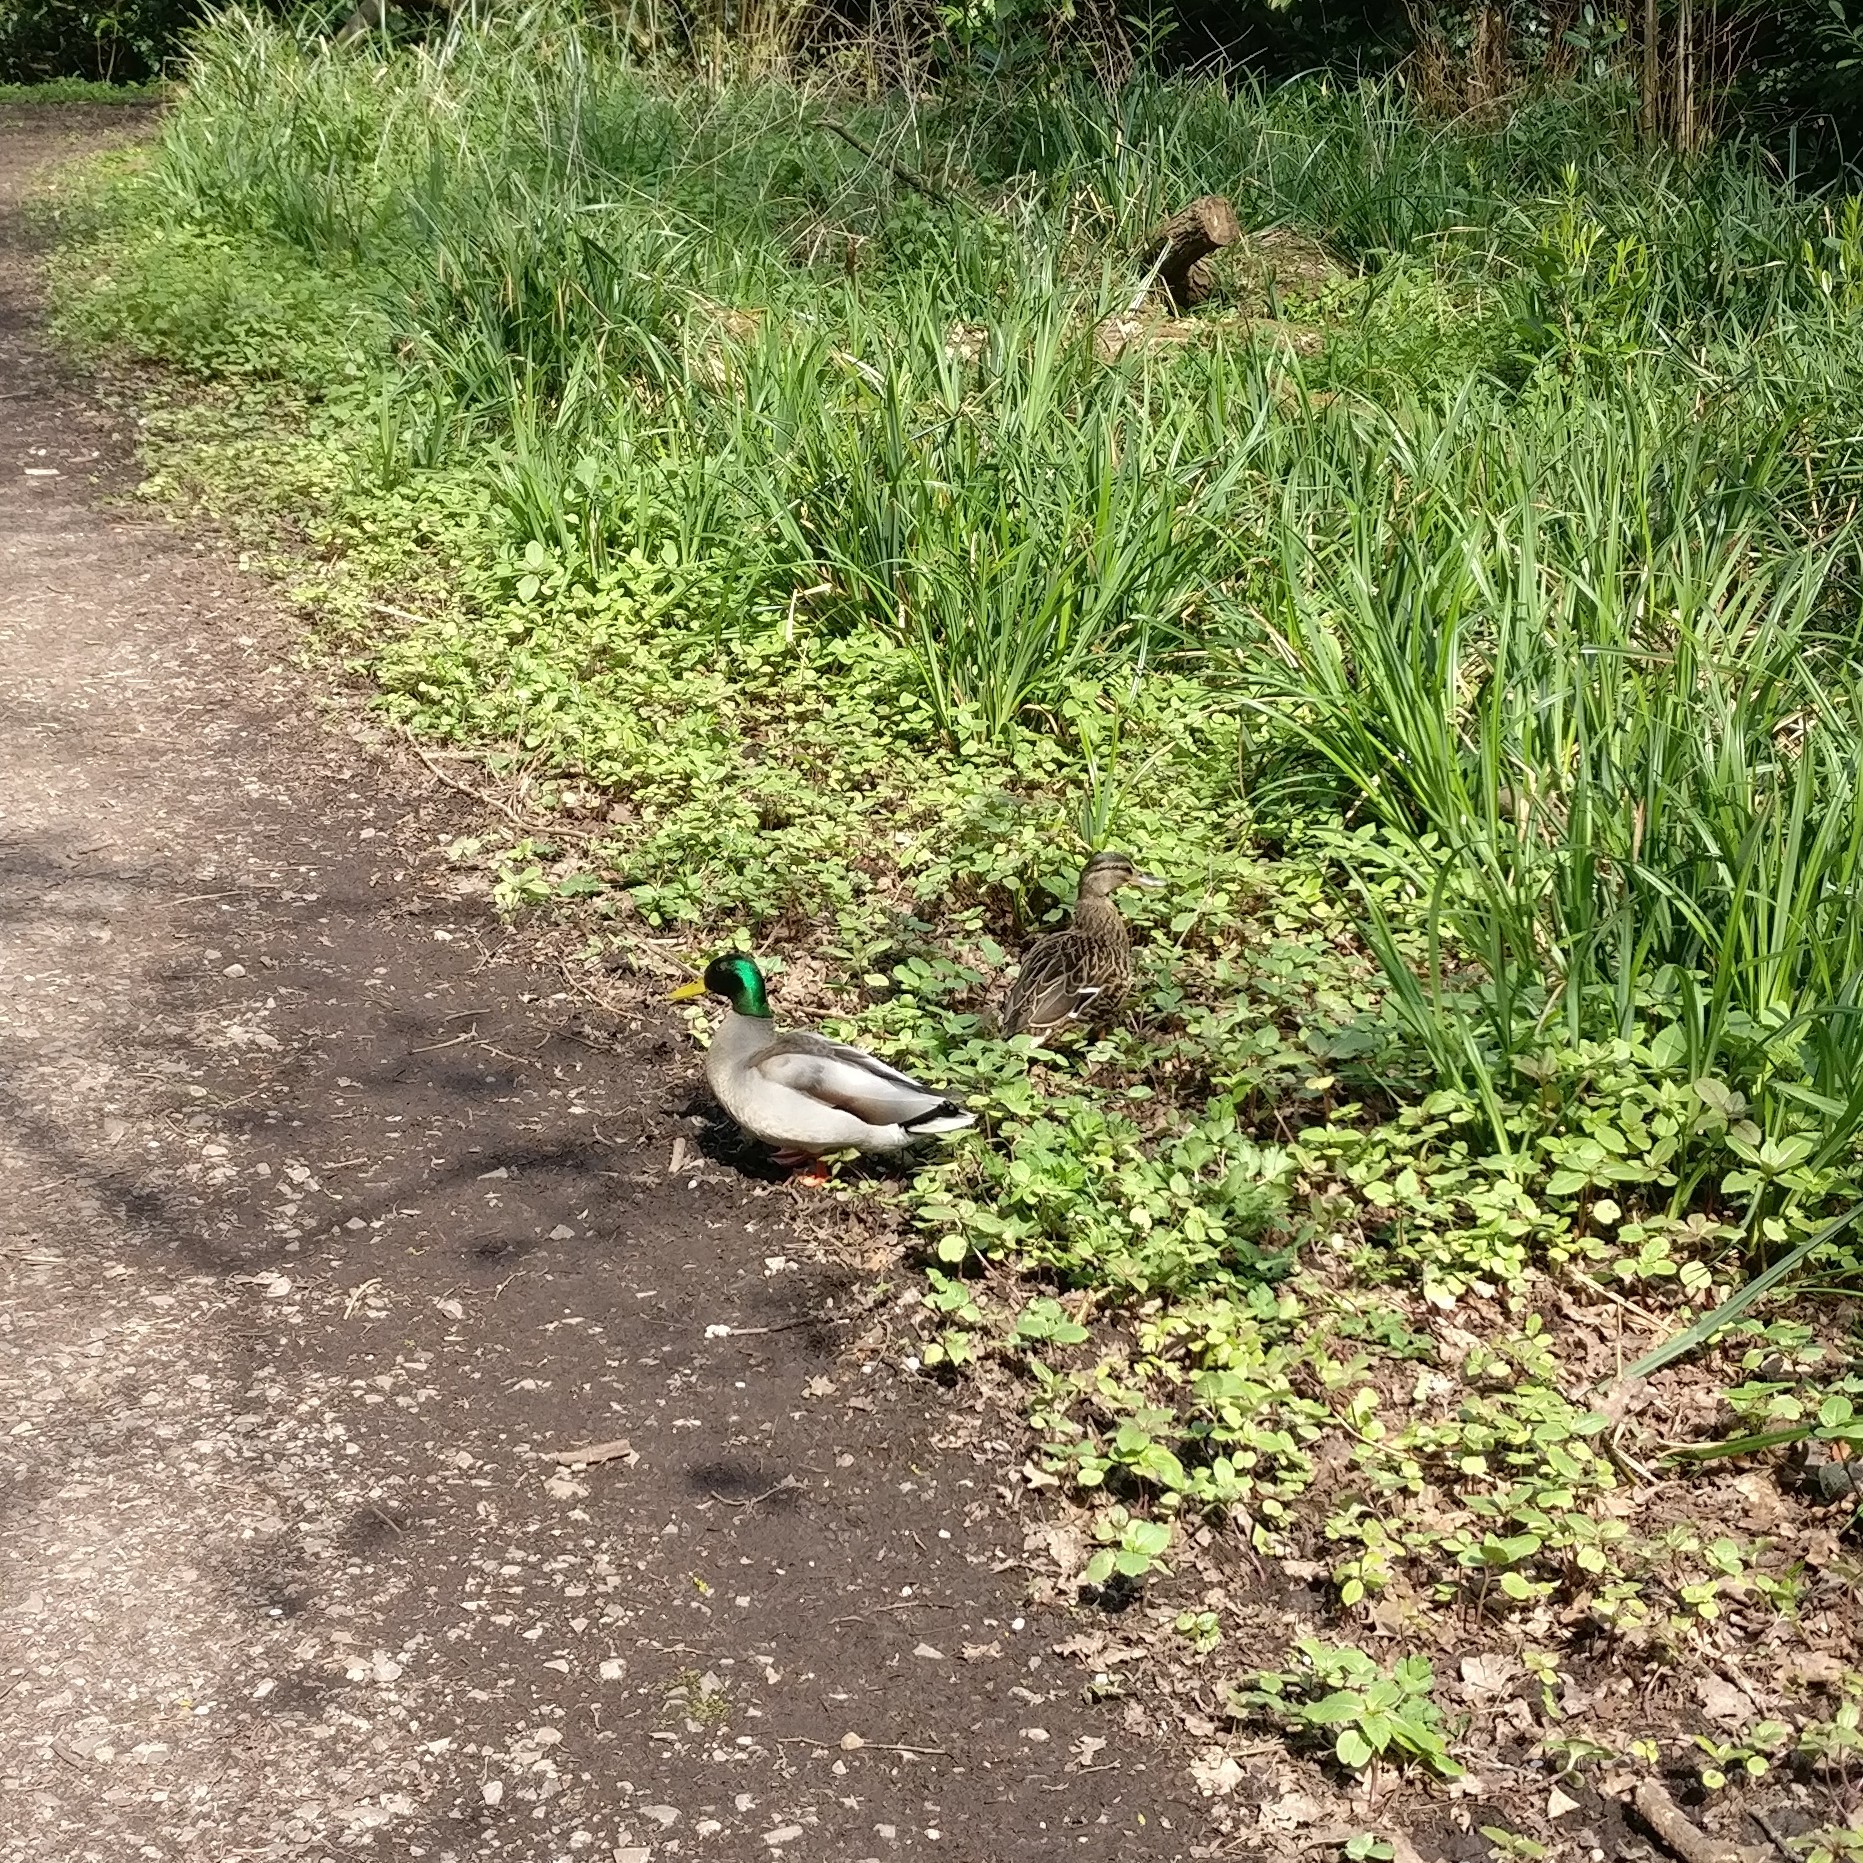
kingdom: Animalia
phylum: Chordata
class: Aves
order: Anseriformes
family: Anatidae
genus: Anas
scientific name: Anas platyrhynchos
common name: Mallard
